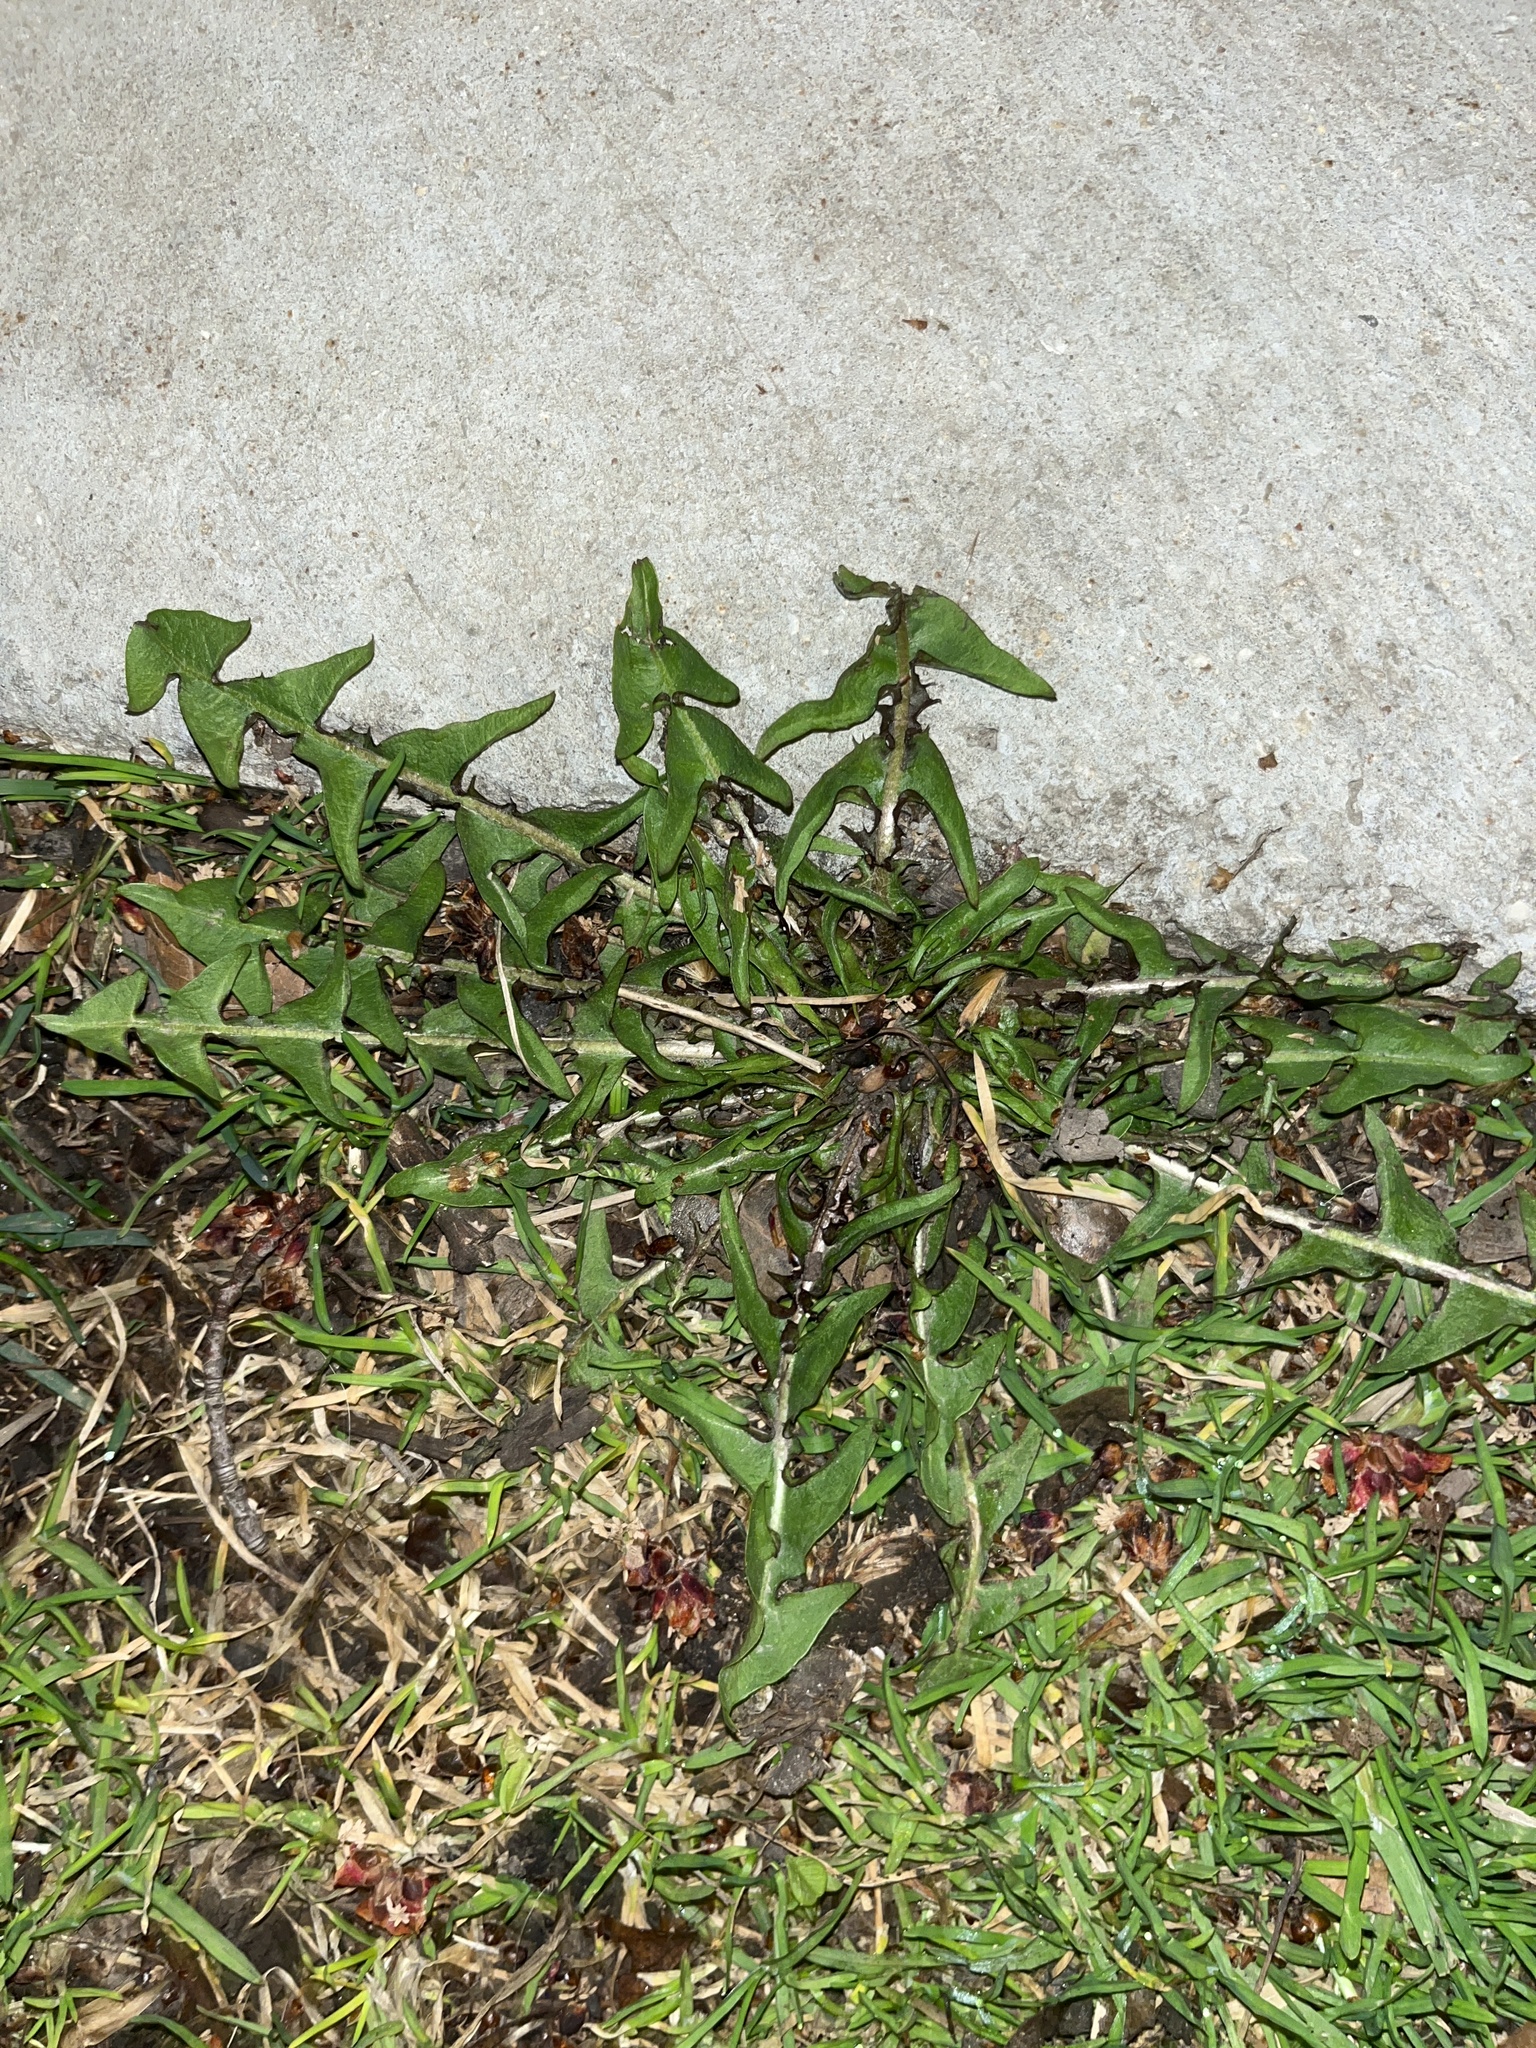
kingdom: Plantae
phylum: Tracheophyta
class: Magnoliopsida
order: Asterales
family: Asteraceae
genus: Taraxacum
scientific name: Taraxacum officinale
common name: Common dandelion
